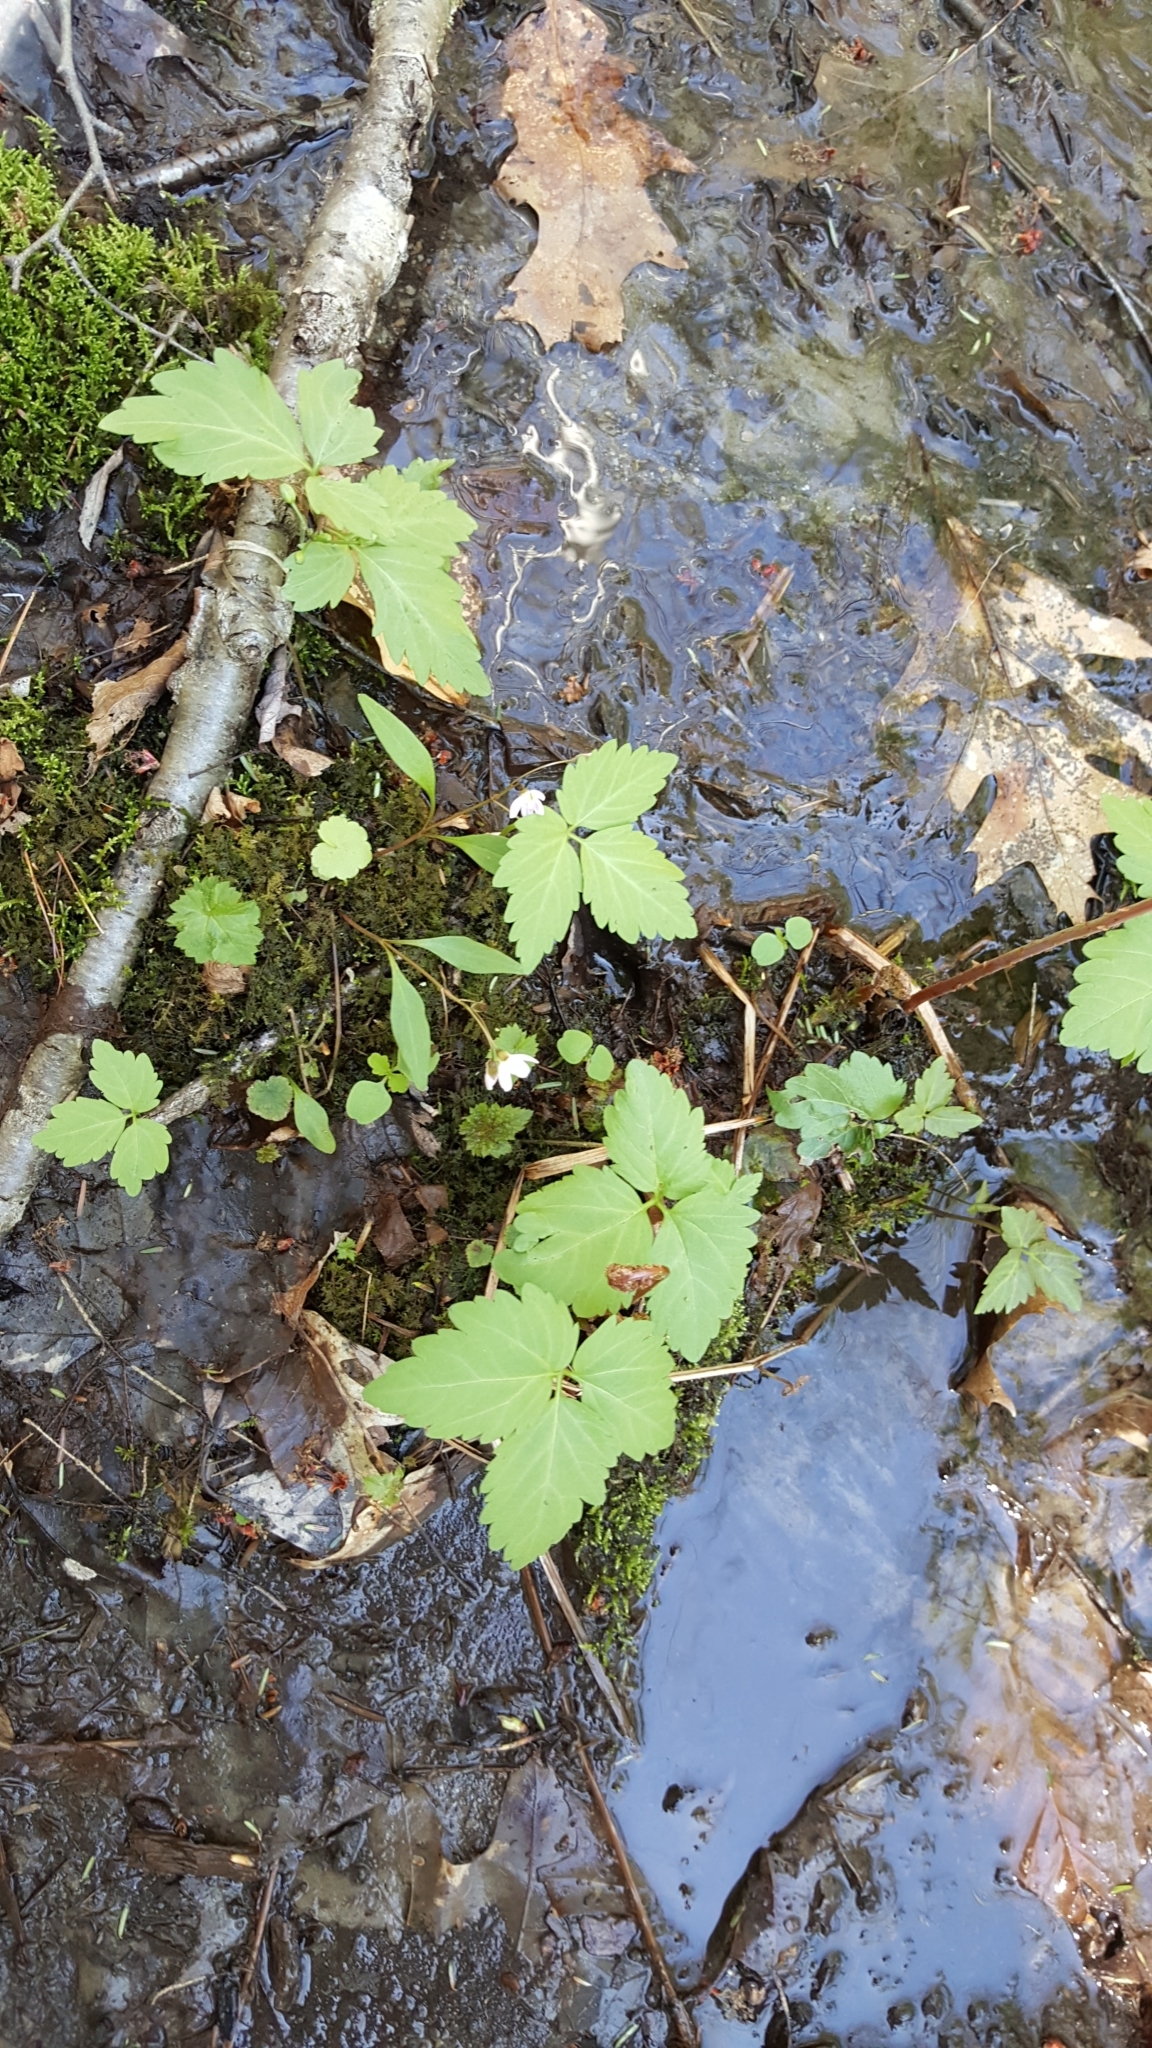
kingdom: Plantae
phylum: Tracheophyta
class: Magnoliopsida
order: Brassicales
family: Brassicaceae
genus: Cardamine
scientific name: Cardamine diphylla
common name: Broad-leaved toothwort
